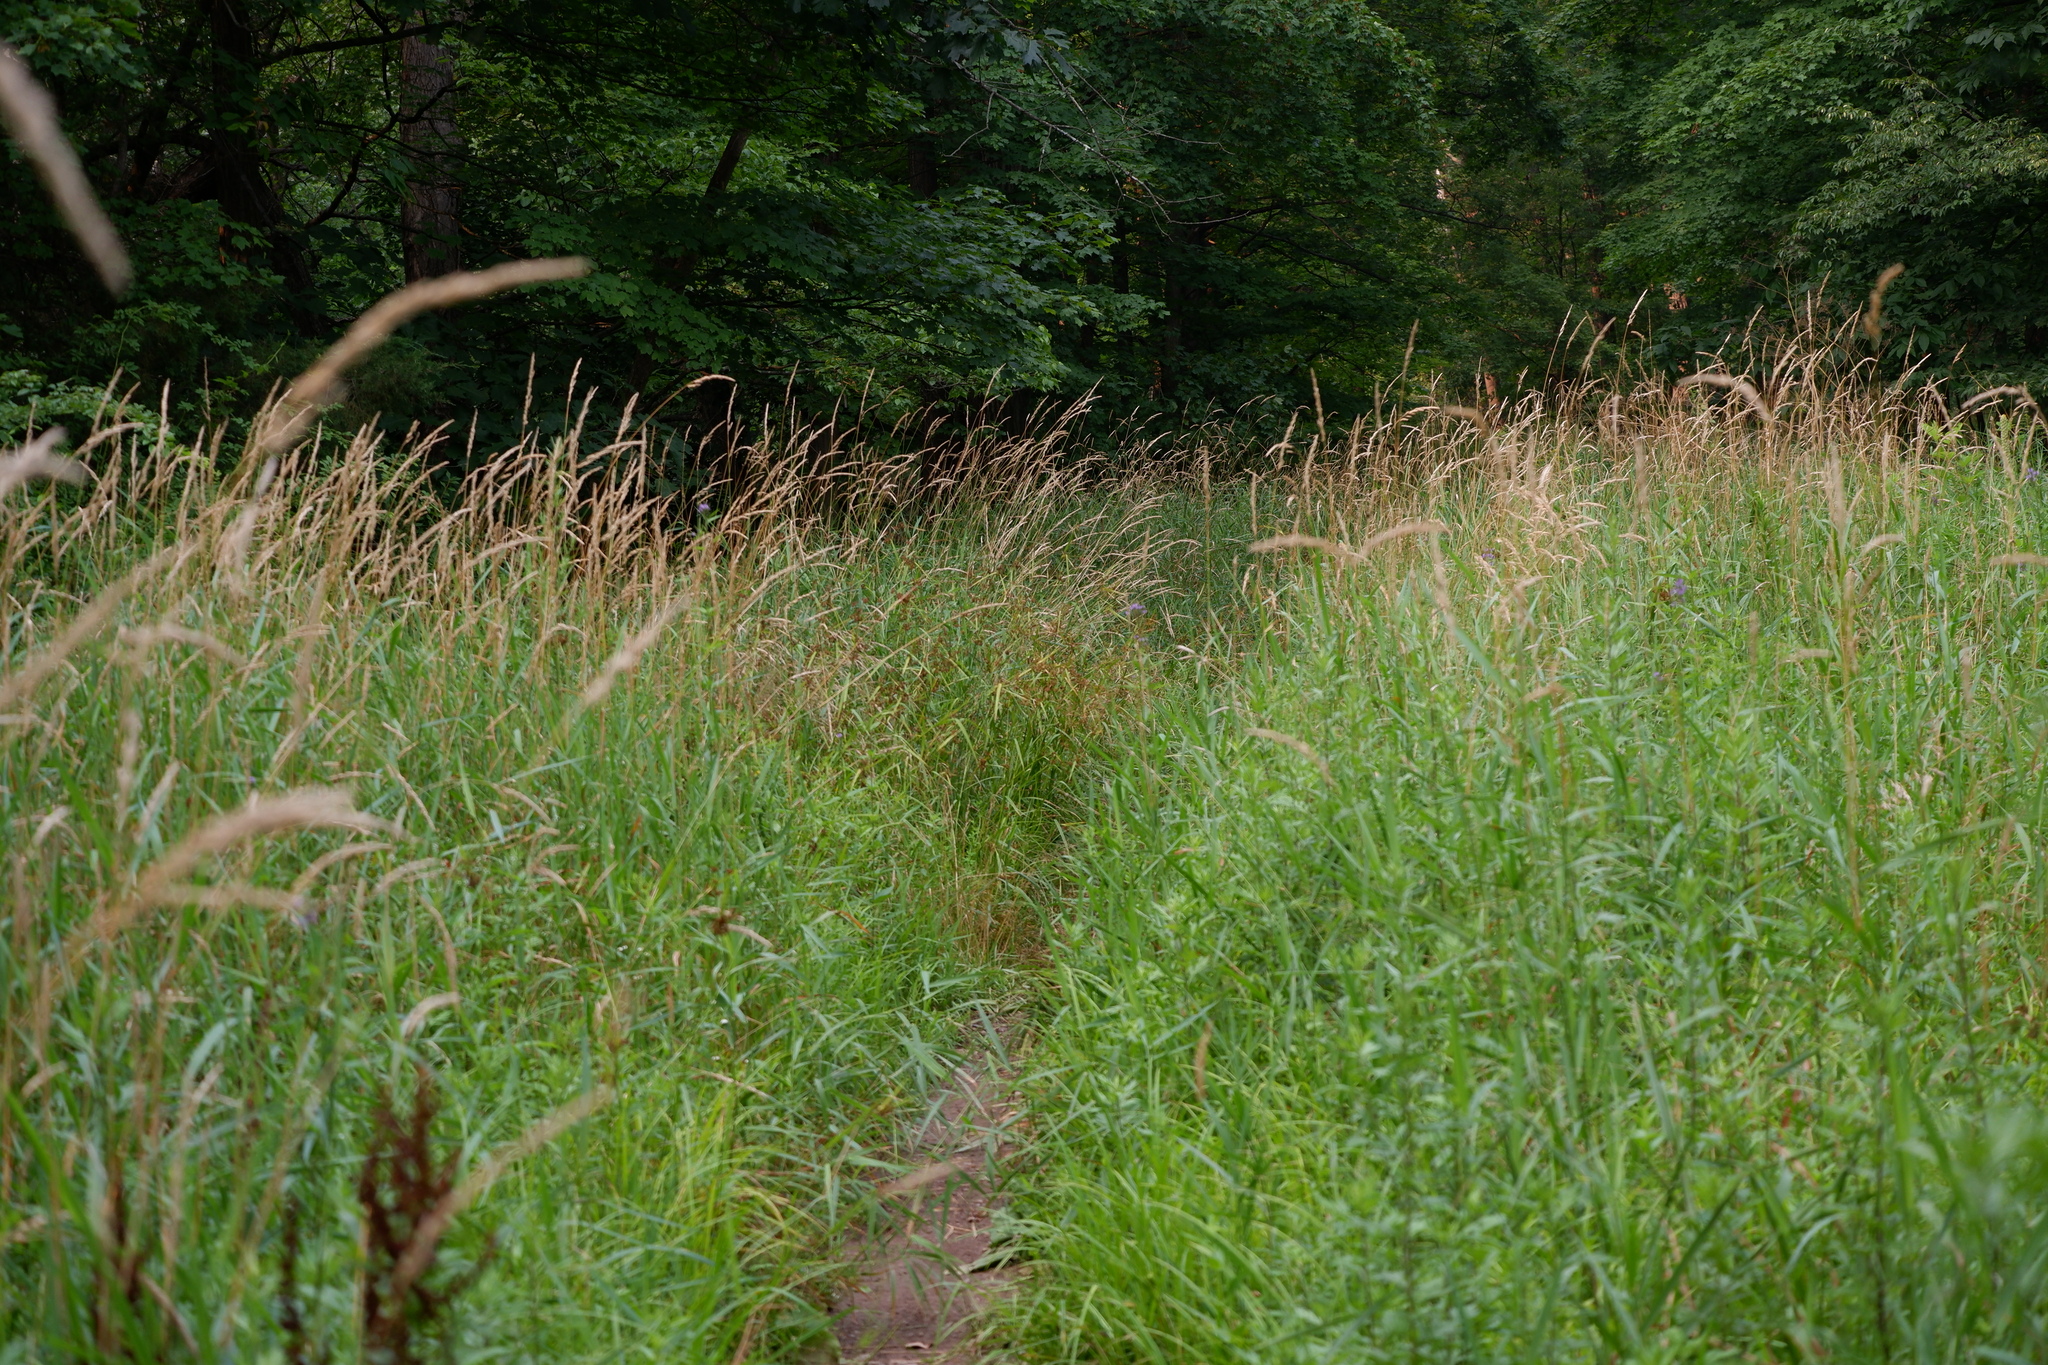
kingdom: Plantae
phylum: Tracheophyta
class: Liliopsida
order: Poales
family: Poaceae
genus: Phalaris
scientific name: Phalaris arundinacea
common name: Reed canary-grass
